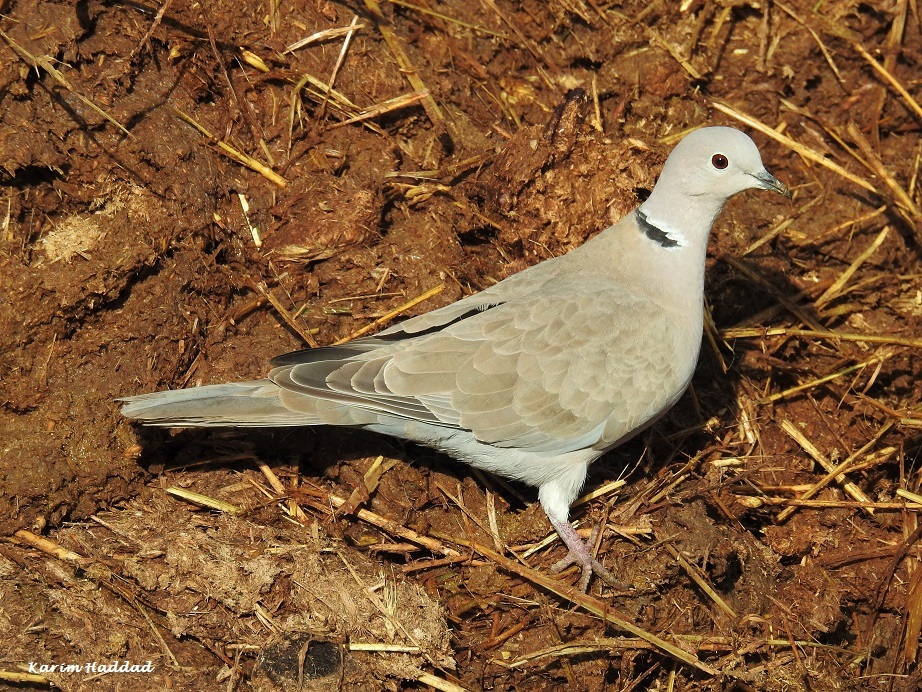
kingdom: Animalia
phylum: Chordata
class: Aves
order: Columbiformes
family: Columbidae
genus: Streptopelia
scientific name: Streptopelia decaocto
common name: Eurasian collared dove
